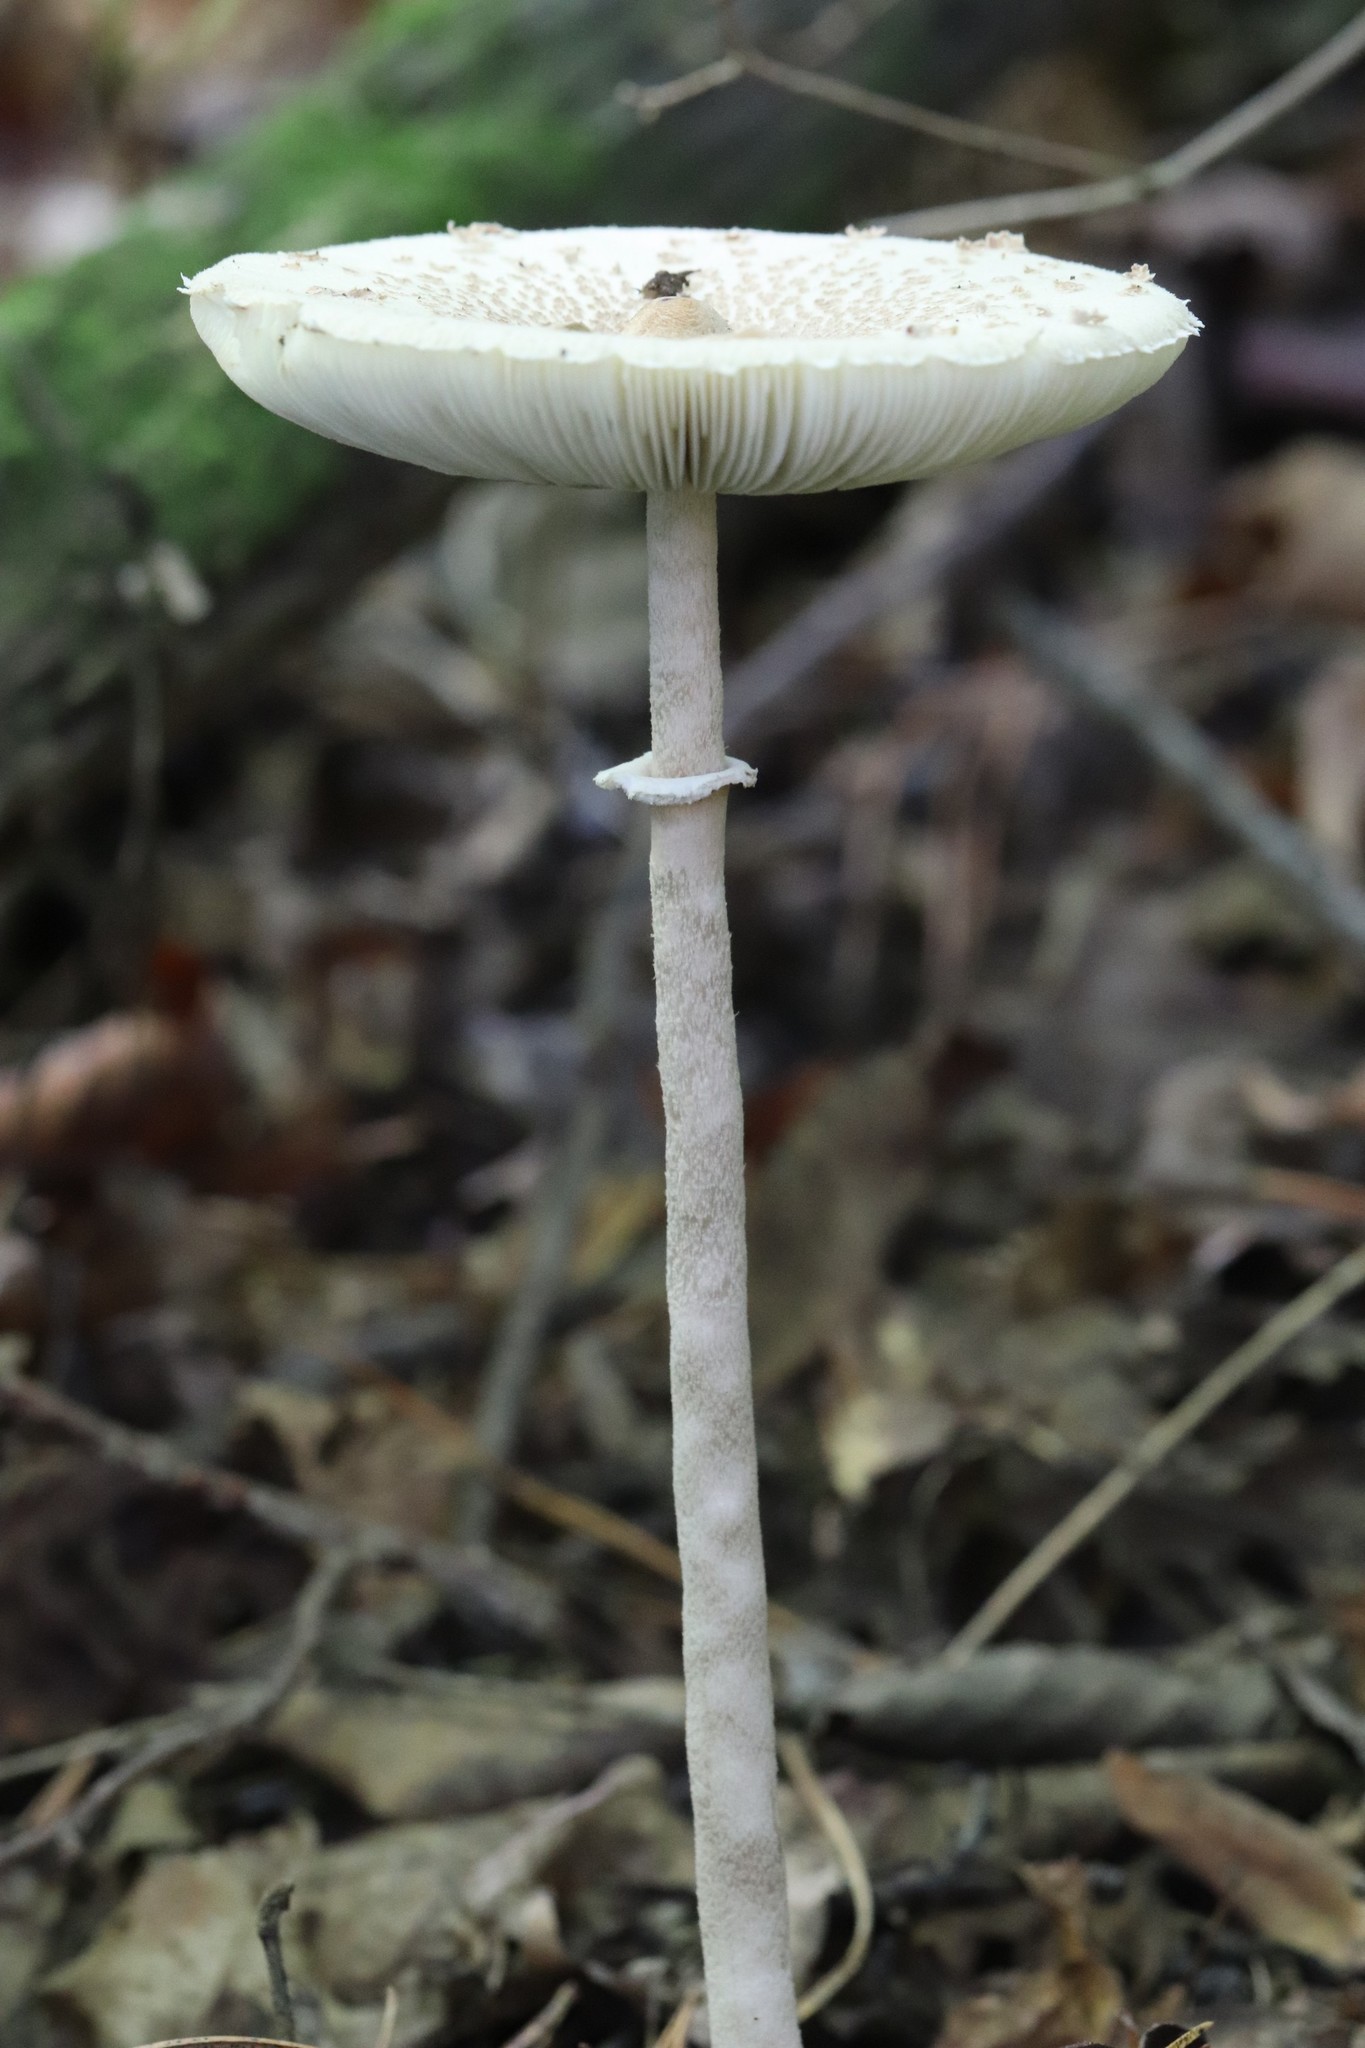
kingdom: Fungi
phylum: Basidiomycota
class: Agaricomycetes
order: Agaricales
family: Agaricaceae
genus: Macrolepiota
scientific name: Macrolepiota mastoidea
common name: Slender parasol
